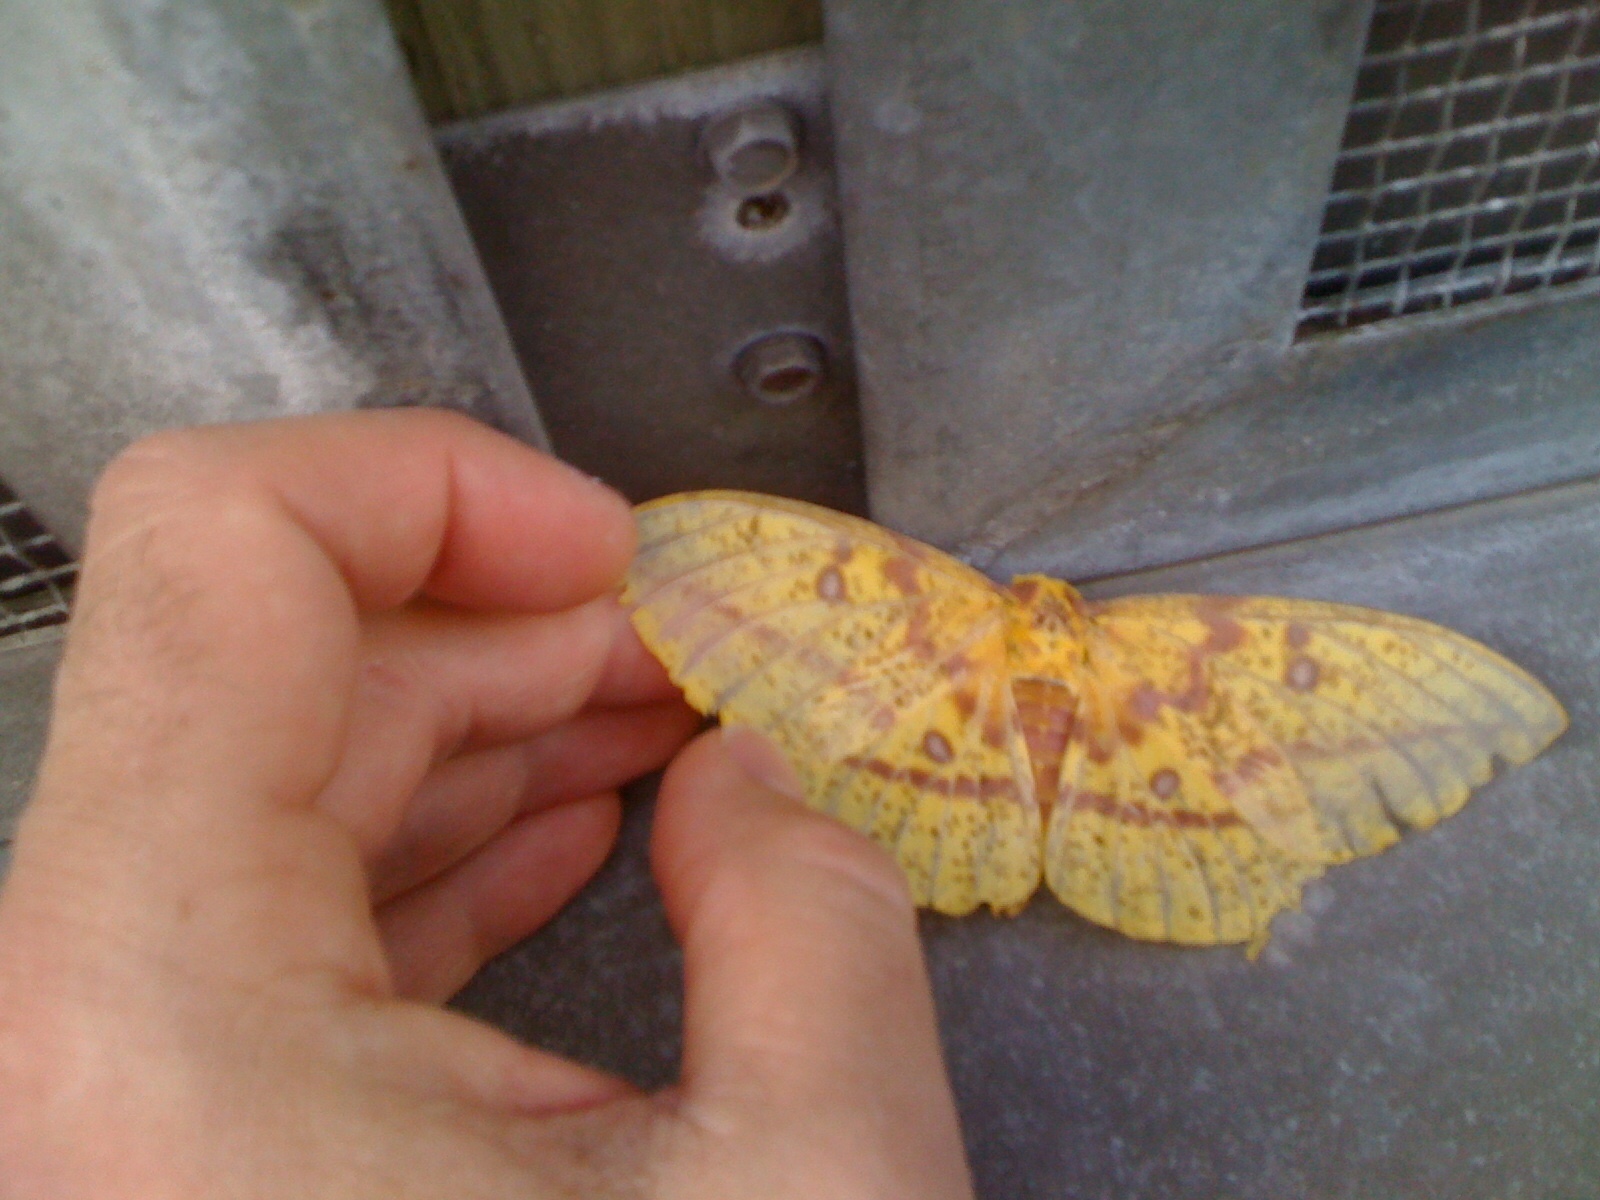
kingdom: Animalia
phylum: Arthropoda
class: Insecta
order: Lepidoptera
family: Saturniidae
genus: Eacles
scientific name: Eacles imperialis
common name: Imperial moth
